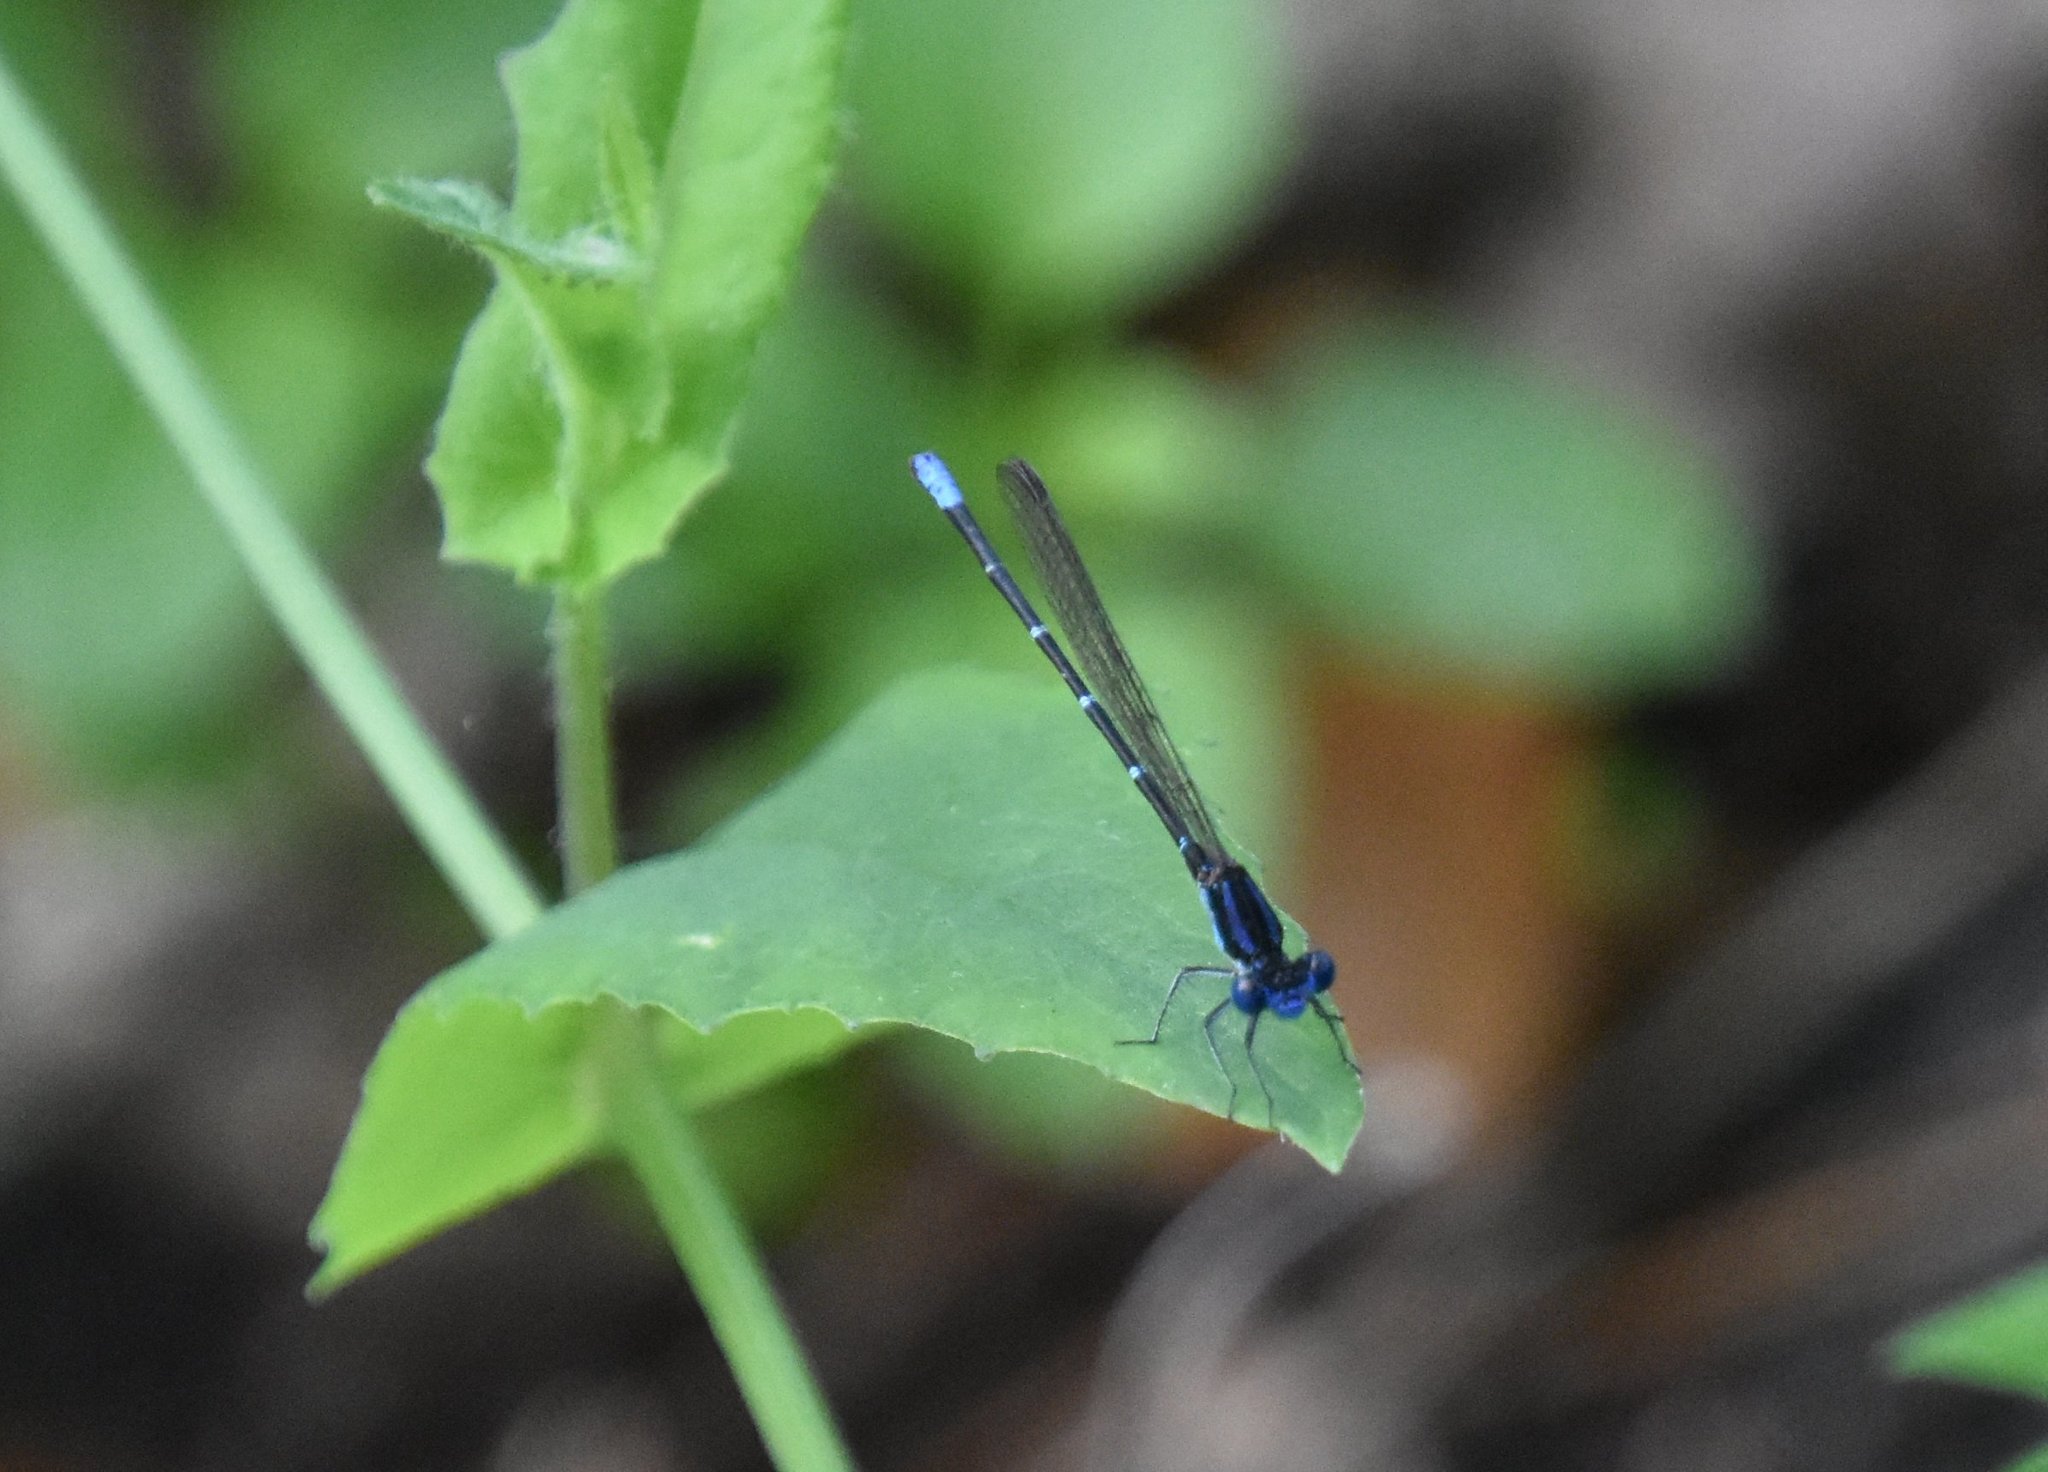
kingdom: Animalia
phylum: Arthropoda
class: Insecta
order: Odonata
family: Coenagrionidae
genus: Argia
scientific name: Argia sedula
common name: Blue-ringed dancer
